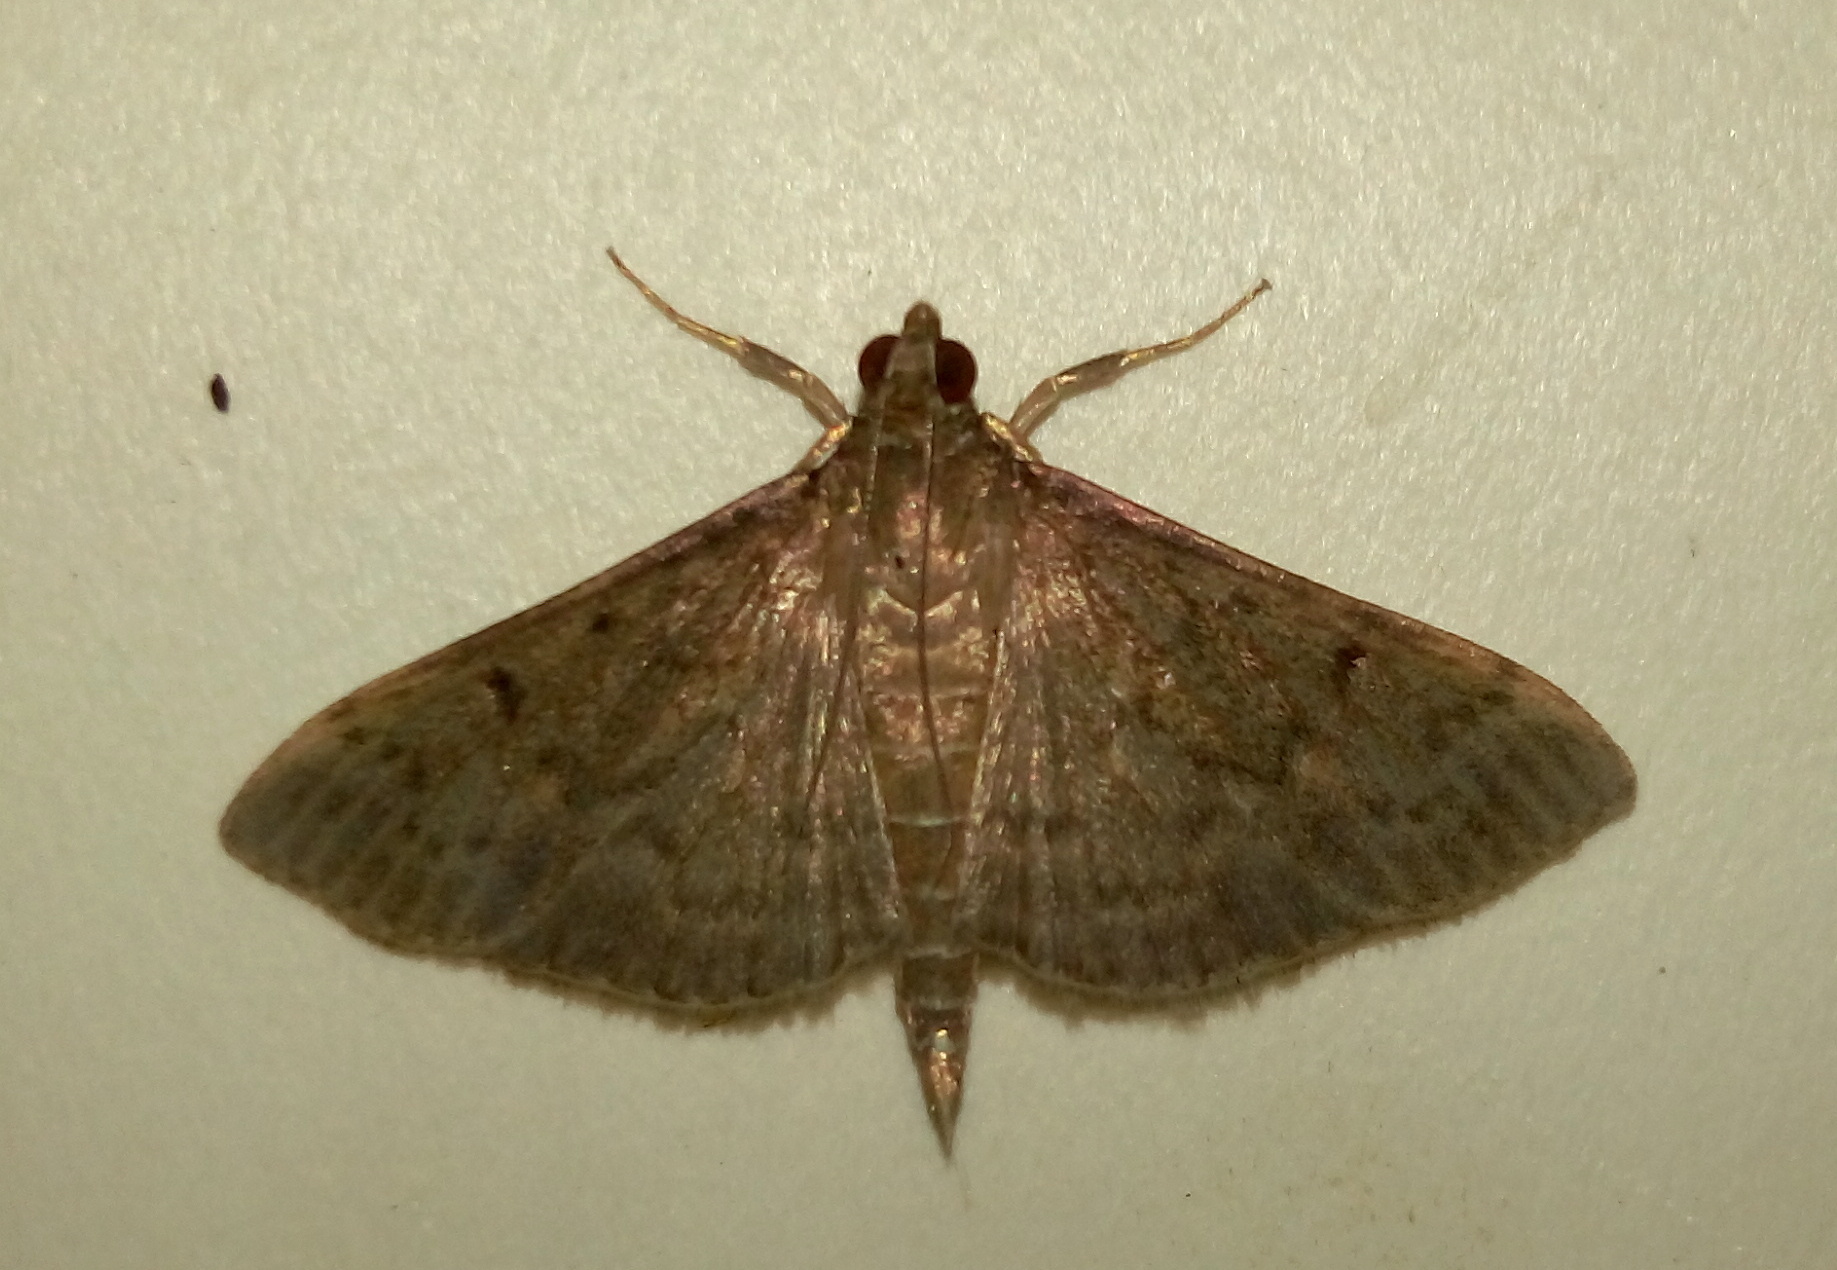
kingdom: Animalia
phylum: Arthropoda
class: Insecta
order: Lepidoptera
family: Crambidae
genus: Herpetogramma
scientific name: Herpetogramma licarsisalis
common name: Grass webworm
